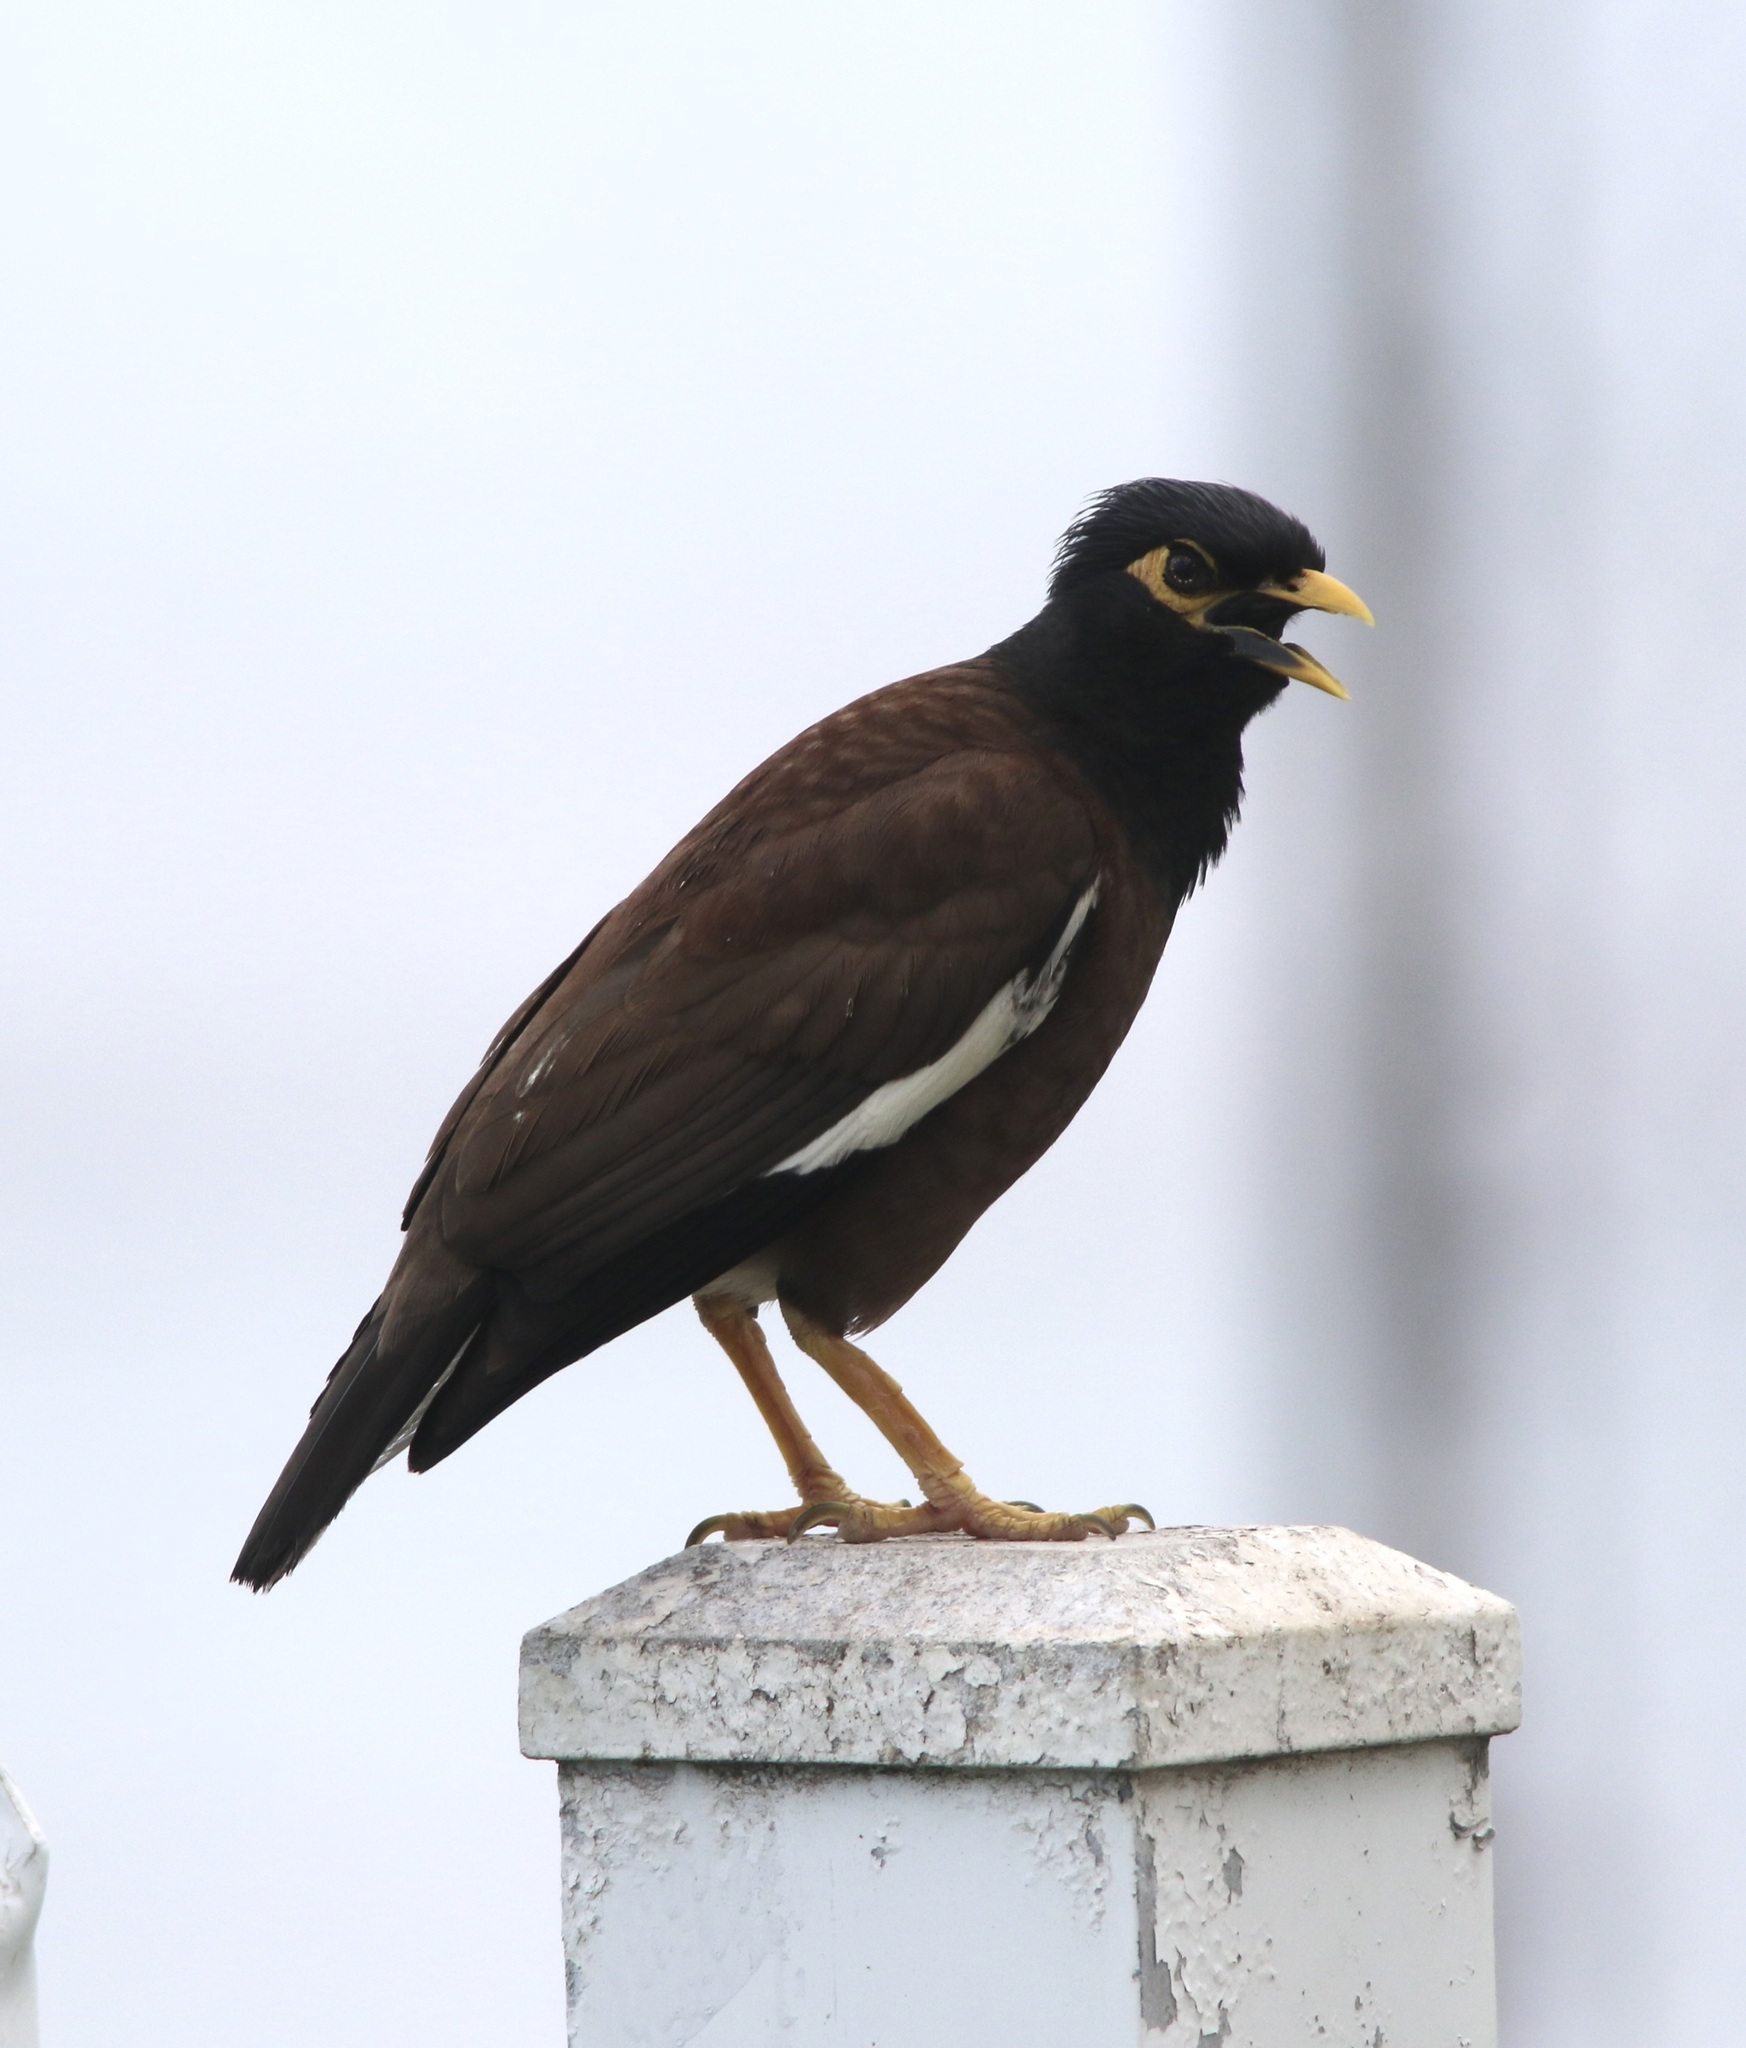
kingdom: Animalia
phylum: Chordata
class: Aves
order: Passeriformes
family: Sturnidae
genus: Acridotheres
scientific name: Acridotheres tristis
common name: Common myna
